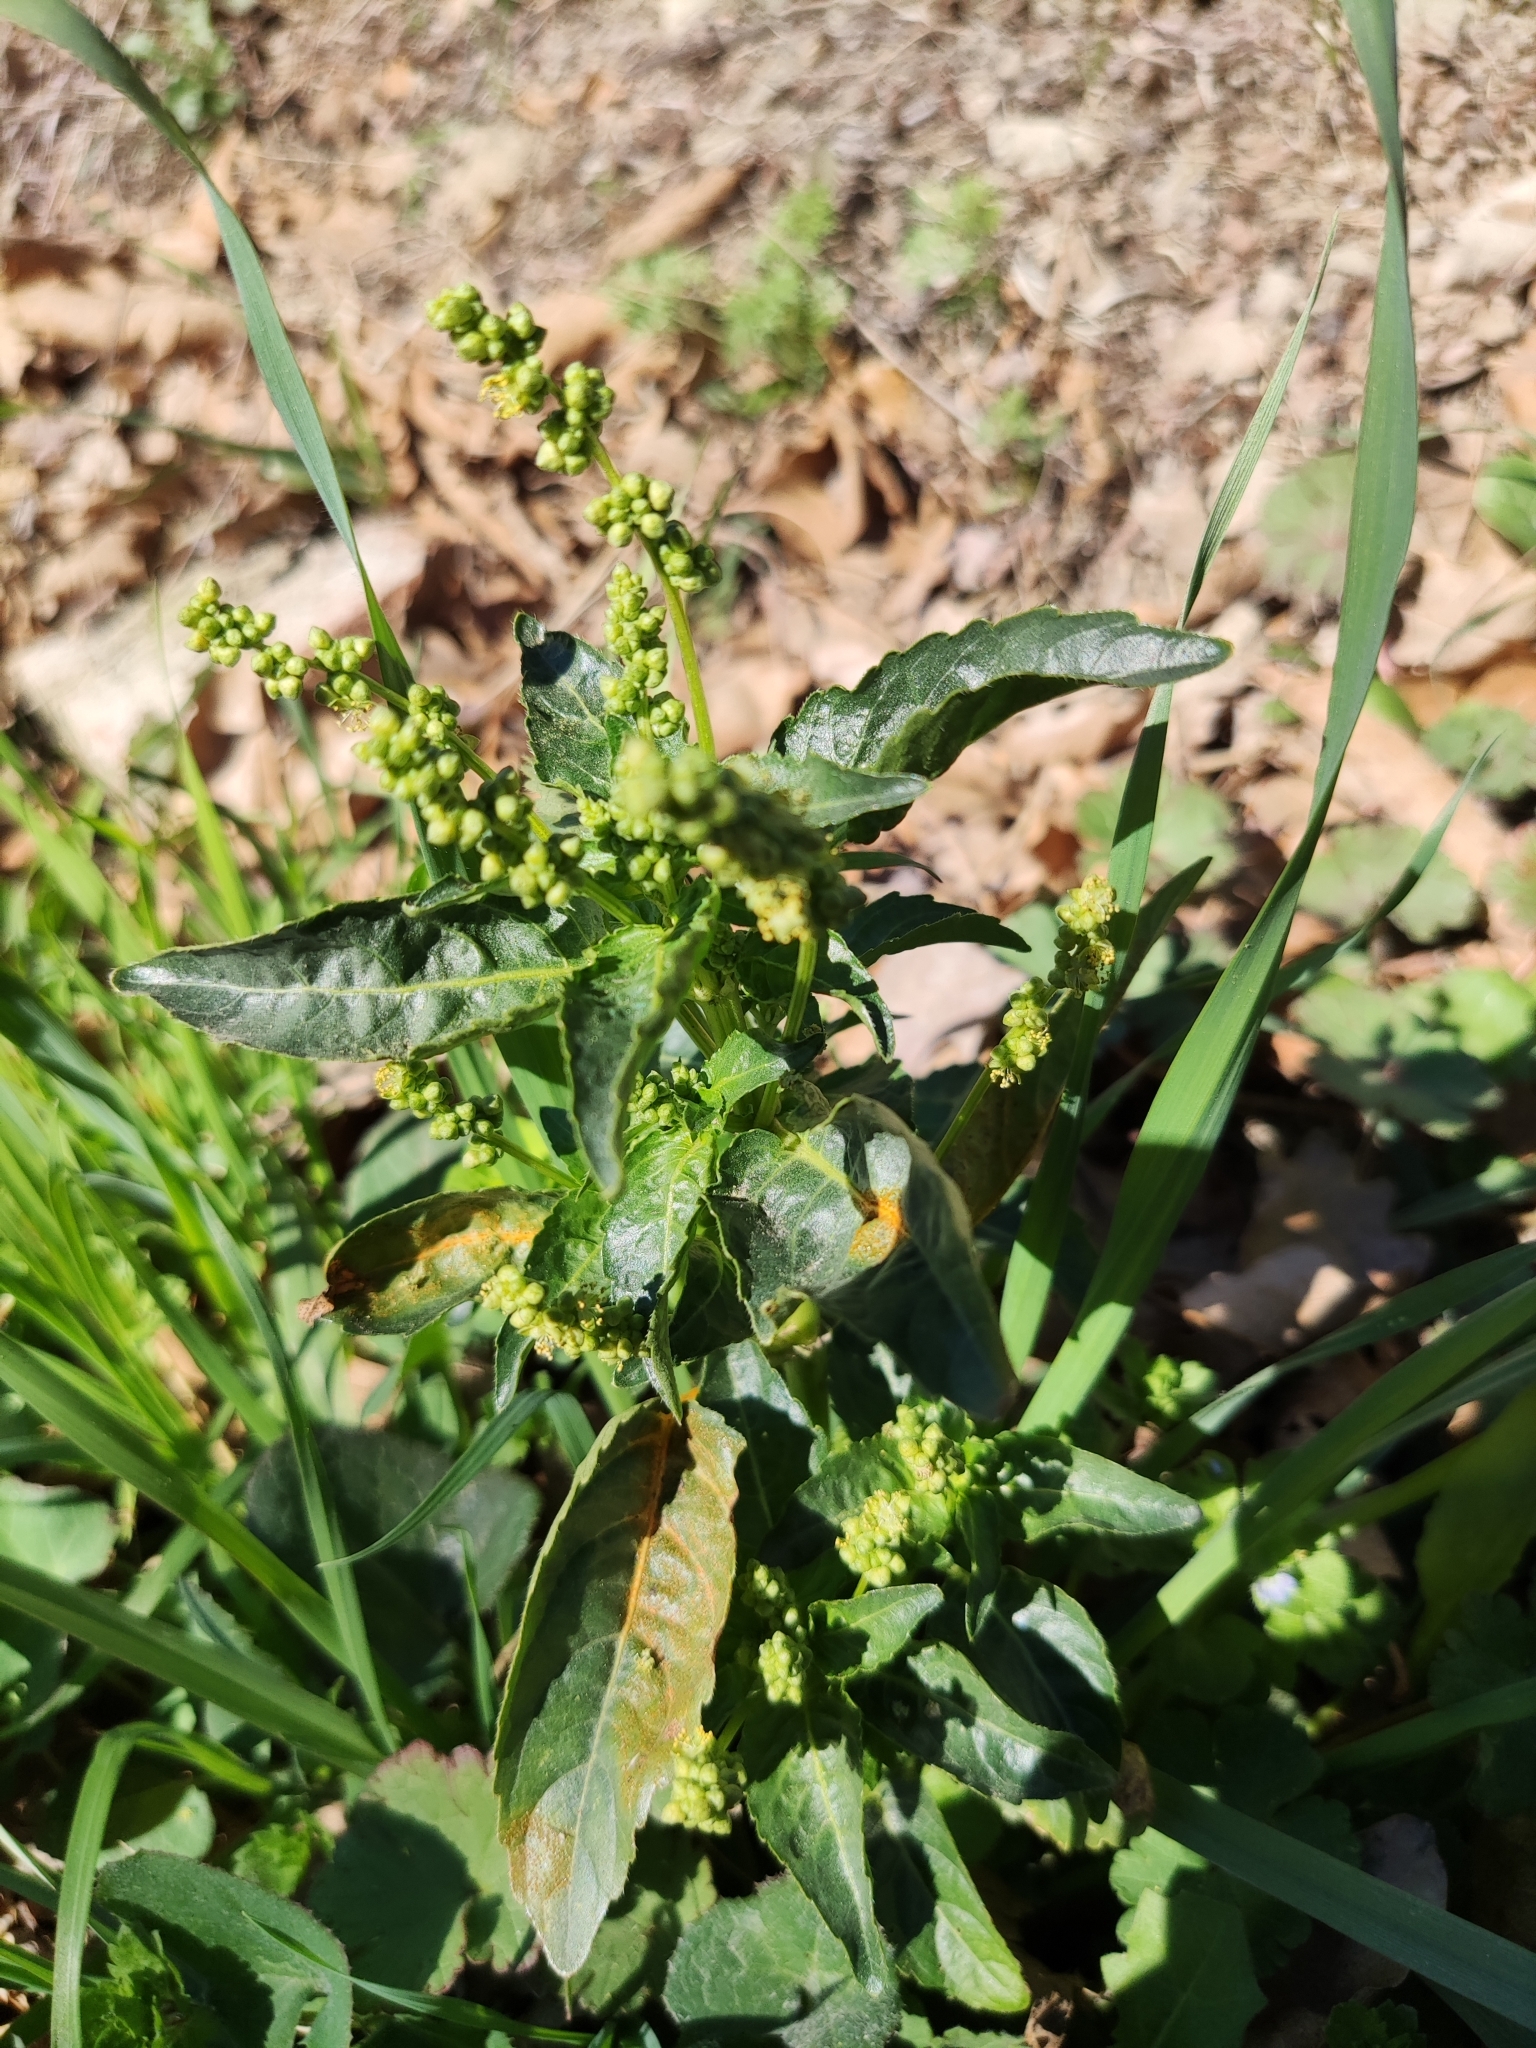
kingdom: Plantae
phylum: Tracheophyta
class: Magnoliopsida
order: Malpighiales
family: Euphorbiaceae
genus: Mercurialis
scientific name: Mercurialis annua
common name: Annual mercury
